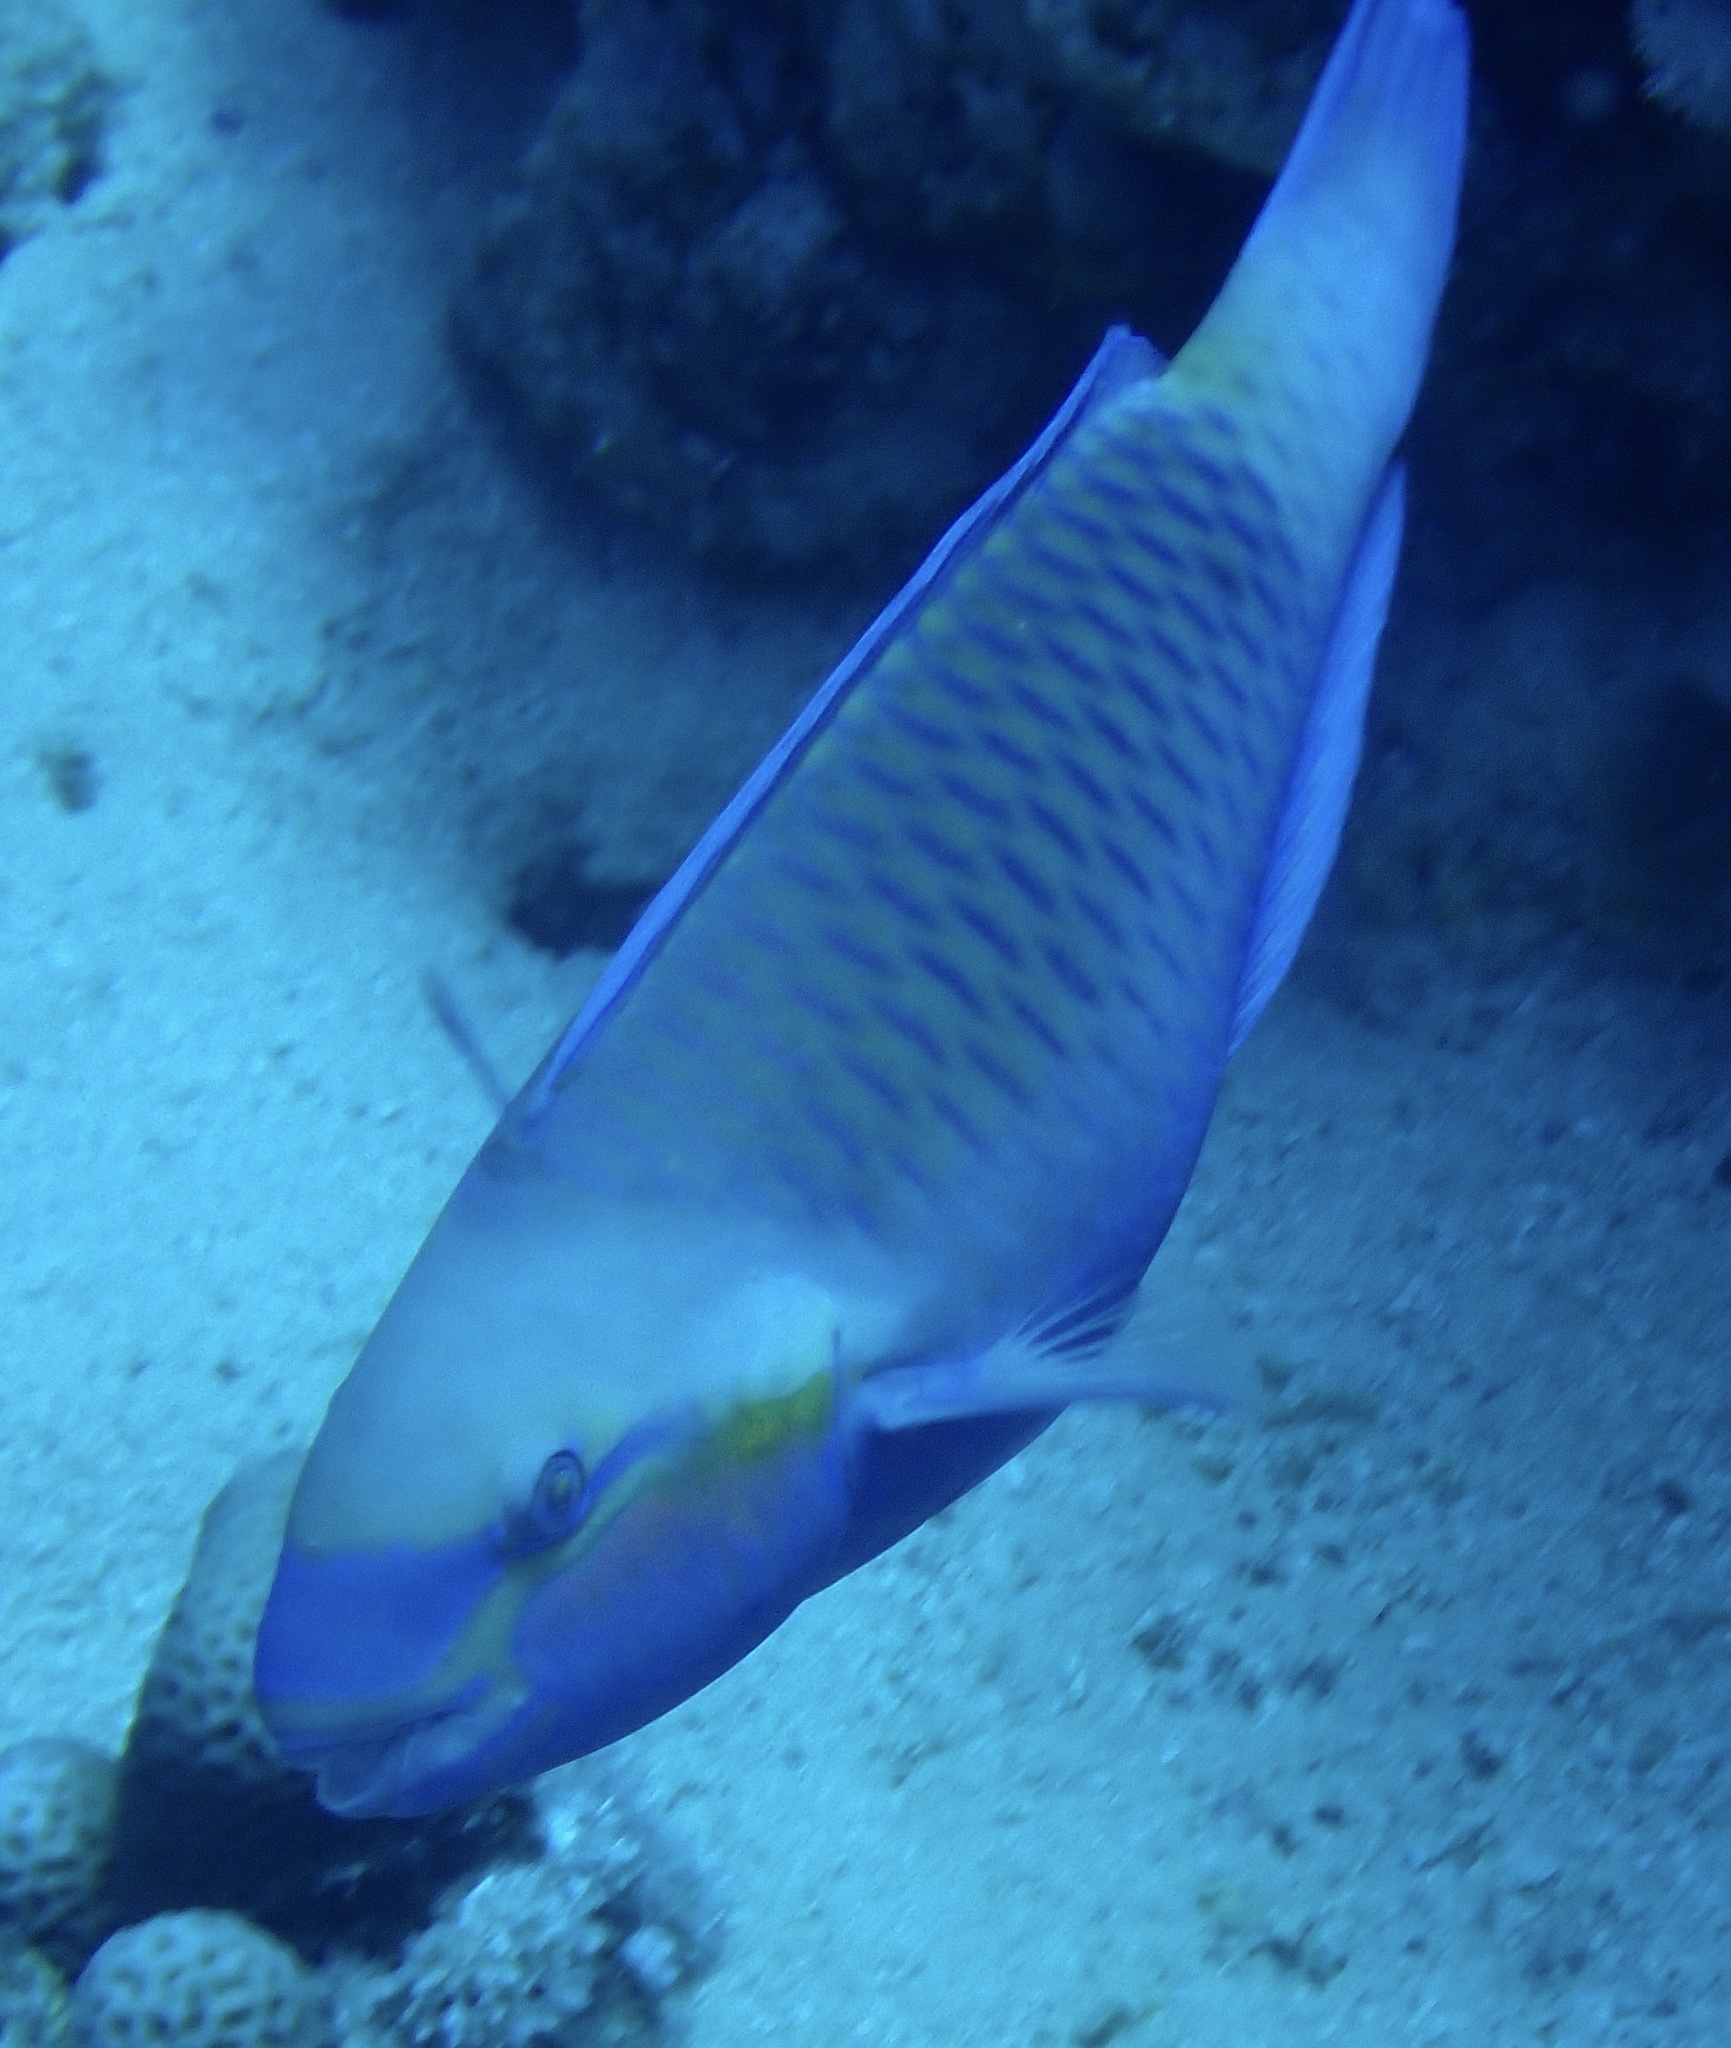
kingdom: Animalia
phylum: Chordata
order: Perciformes
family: Scaridae
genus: Chlorurus
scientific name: Chlorurus sordidus
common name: Bullethead parrotfish
